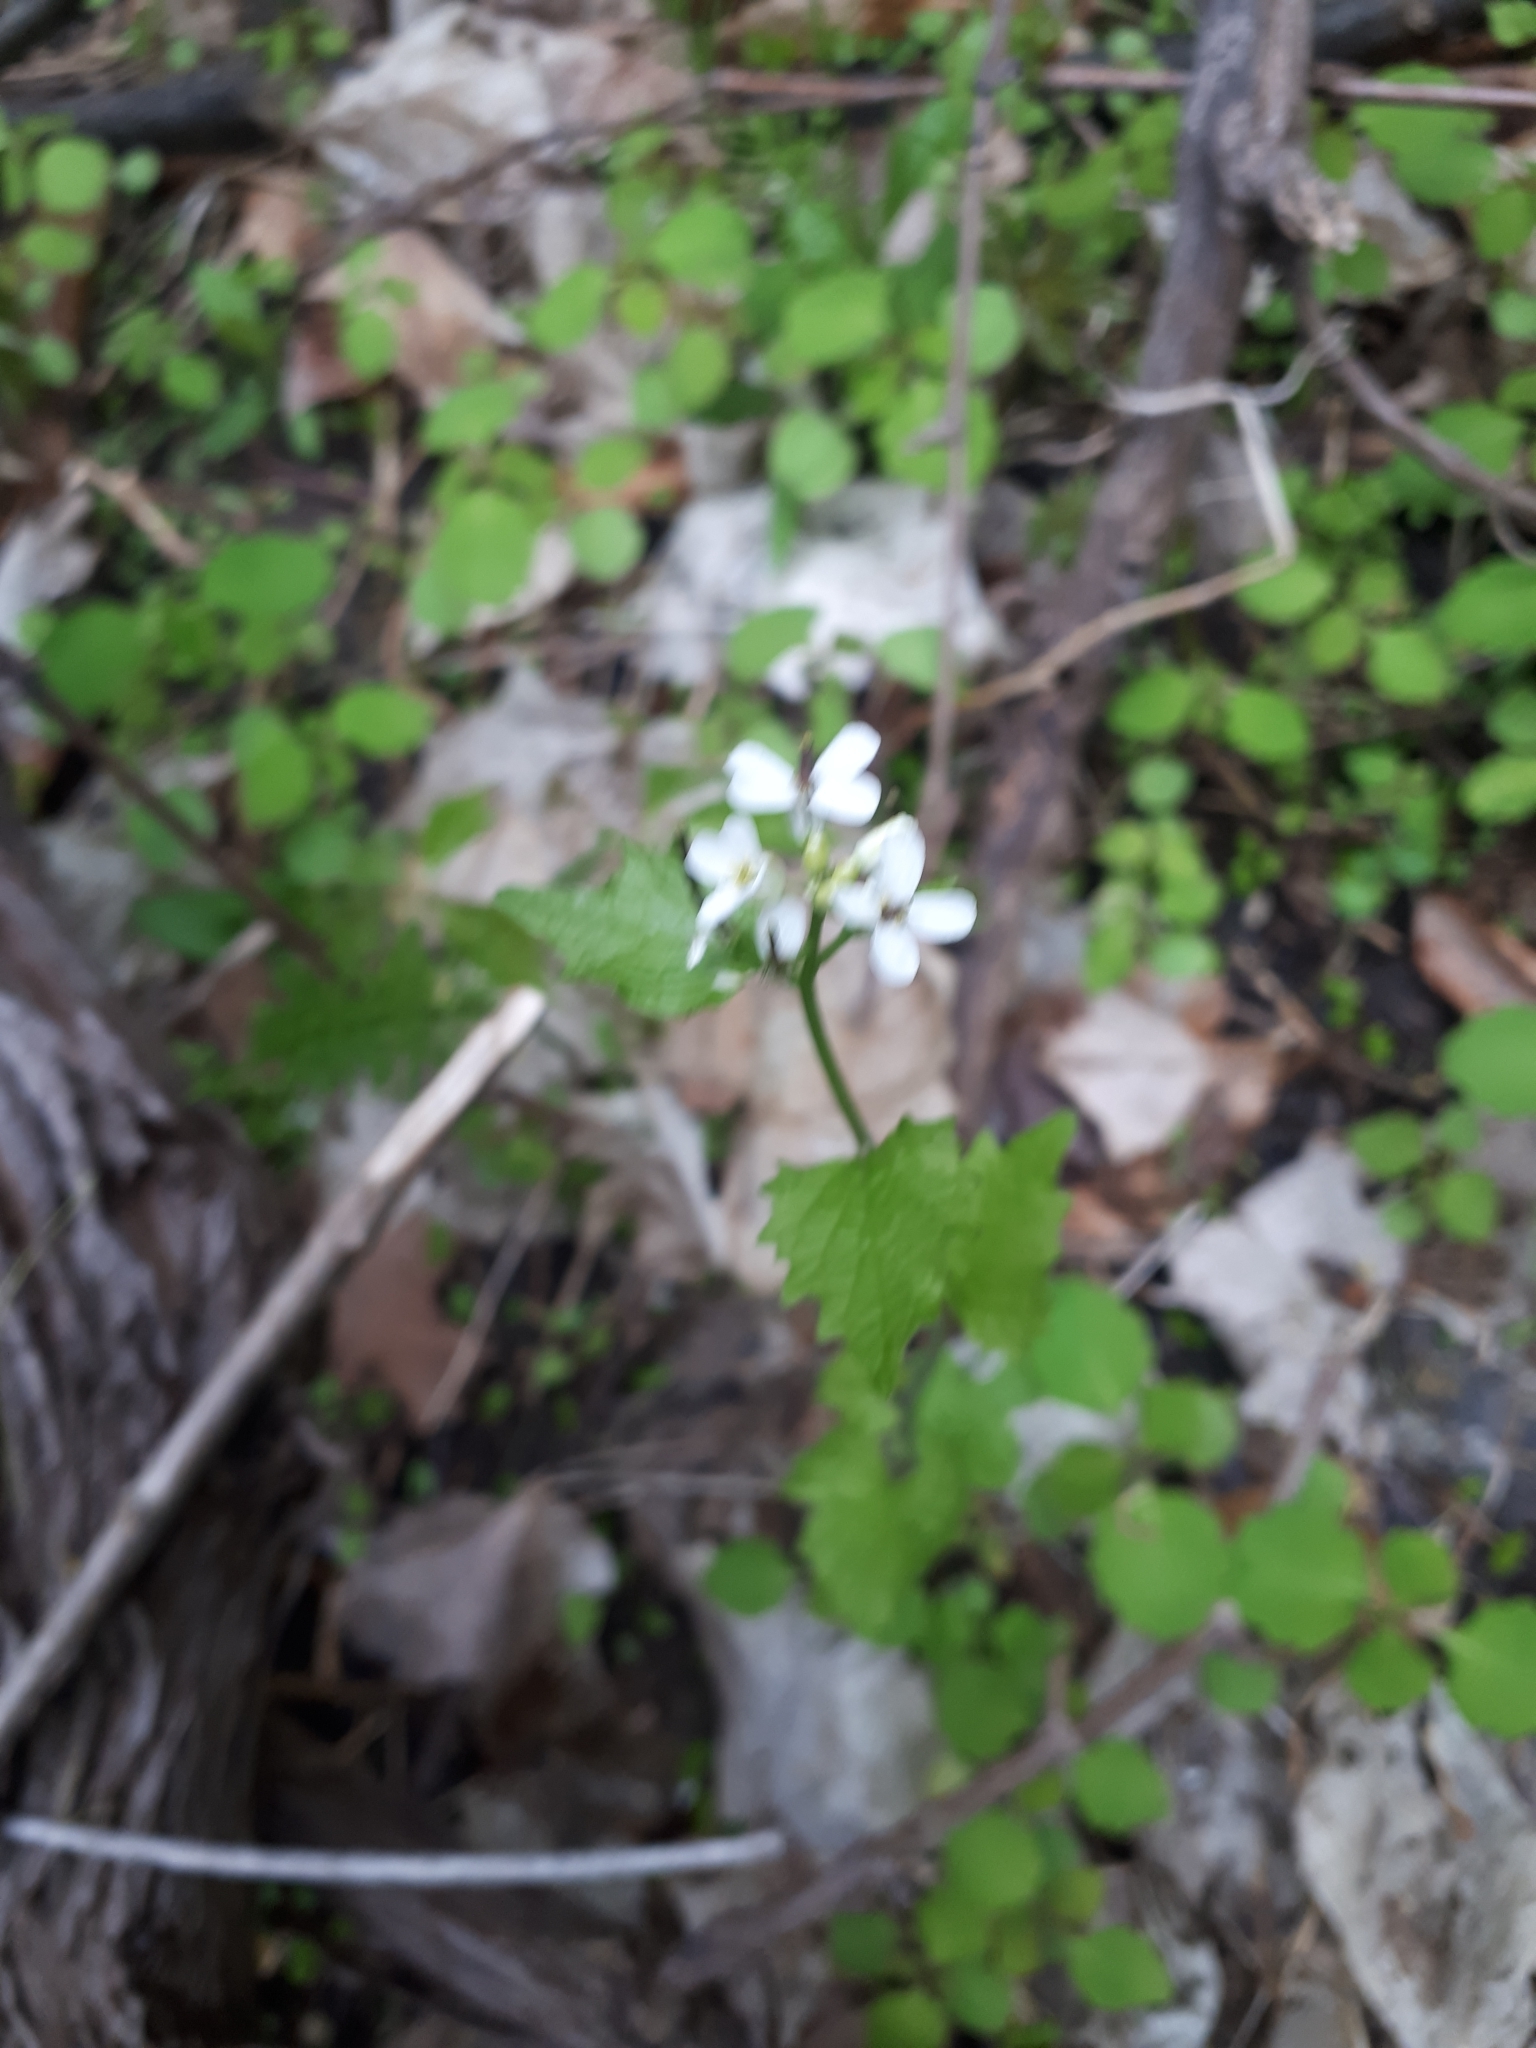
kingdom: Plantae
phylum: Tracheophyta
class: Magnoliopsida
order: Brassicales
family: Brassicaceae
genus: Alliaria
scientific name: Alliaria petiolata
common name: Garlic mustard
